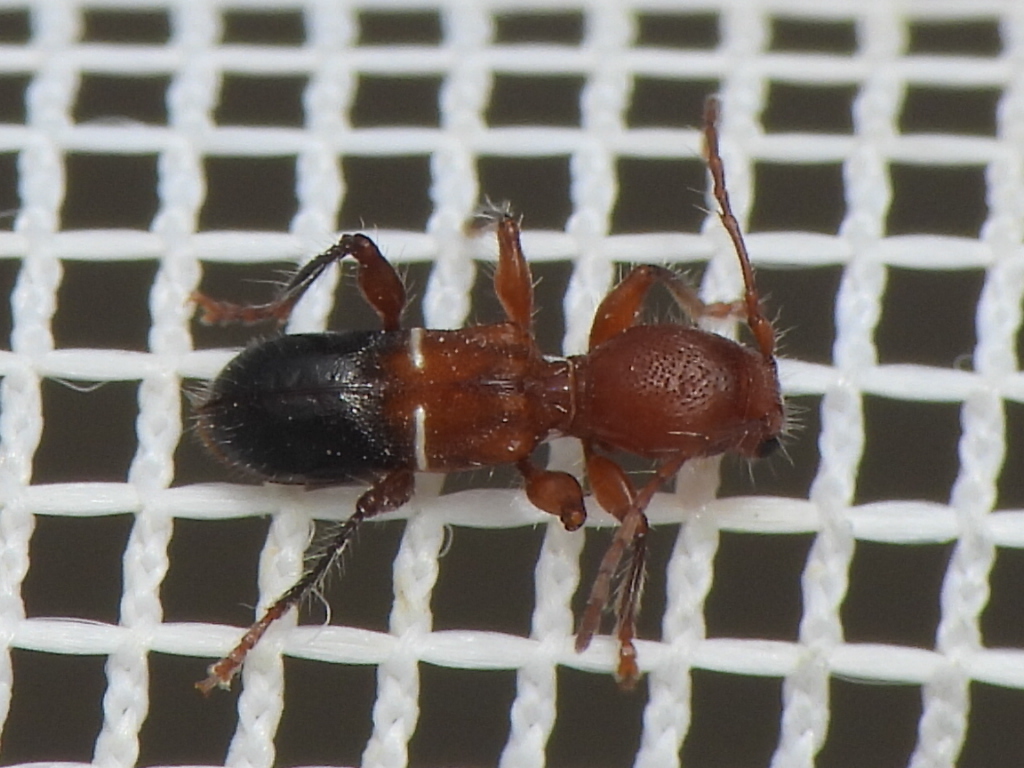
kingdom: Animalia
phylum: Arthropoda
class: Insecta
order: Coleoptera
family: Cerambycidae
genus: Euderces
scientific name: Euderces reichei
